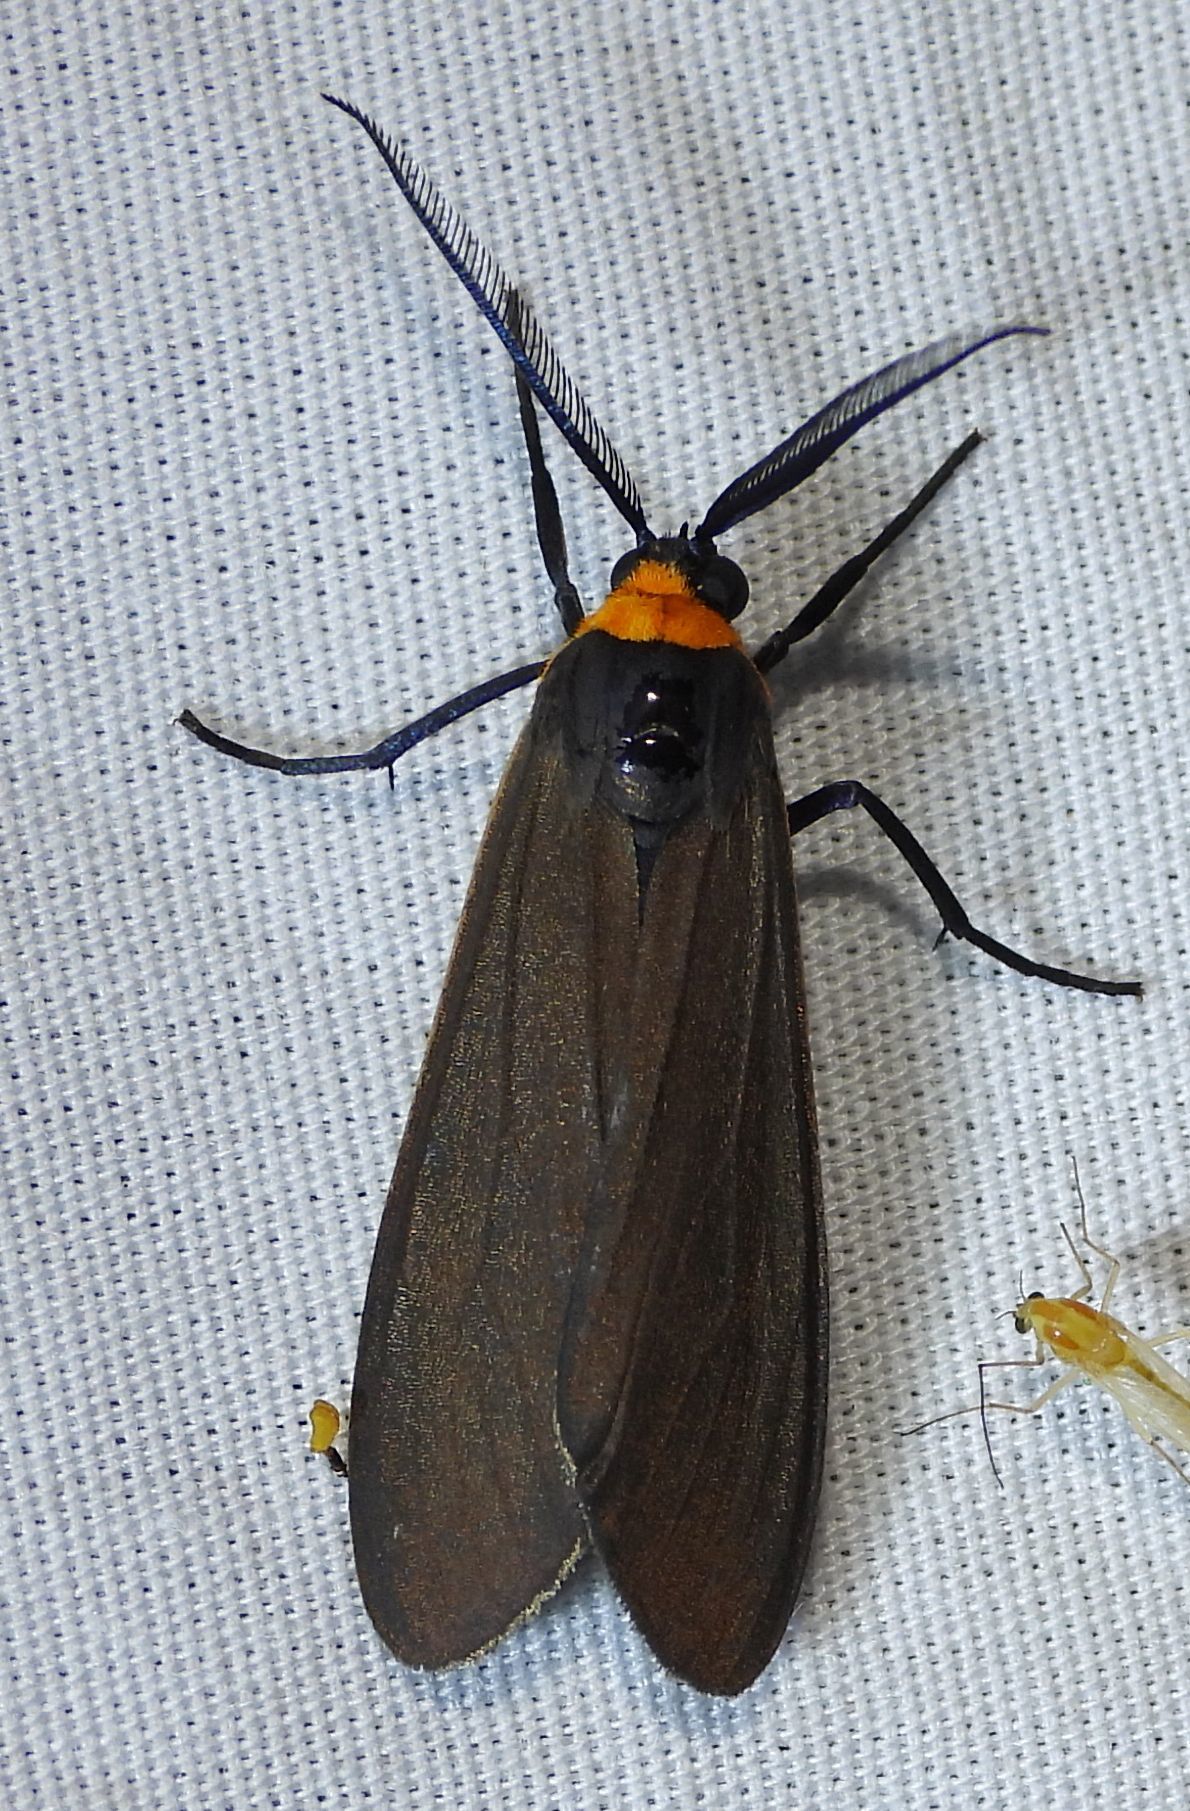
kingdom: Animalia
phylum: Arthropoda
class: Insecta
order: Lepidoptera
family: Erebidae
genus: Cisseps
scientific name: Cisseps fulvicollis
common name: Yellow-collared scape moth
